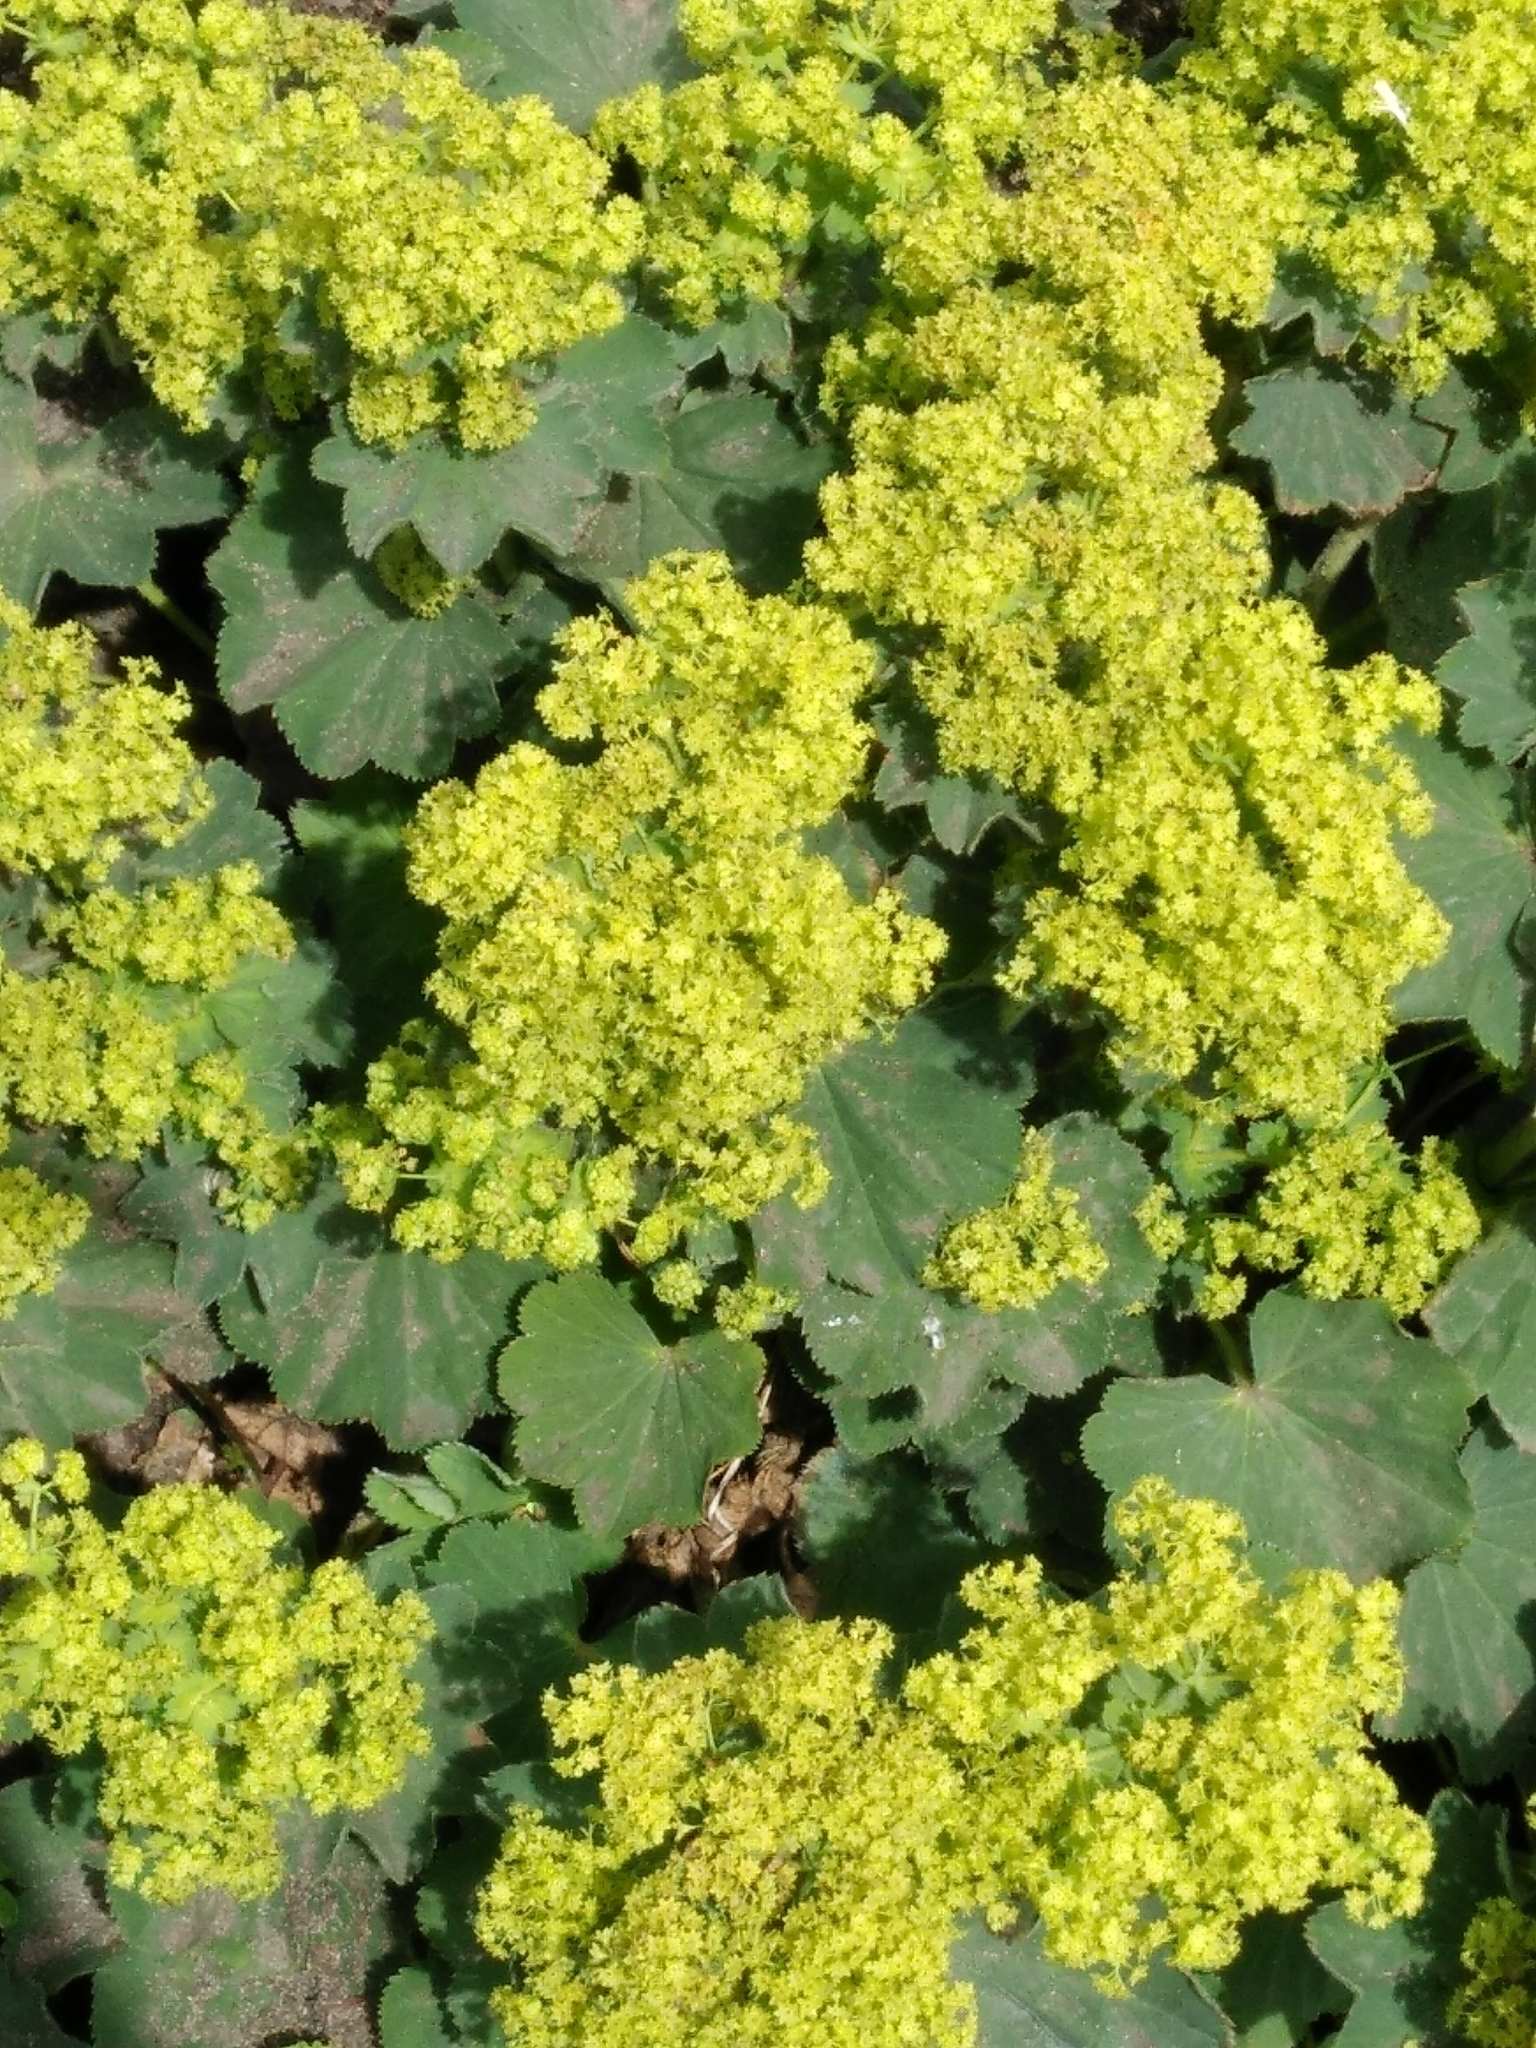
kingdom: Plantae
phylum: Tracheophyta
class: Magnoliopsida
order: Rosales
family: Rosaceae
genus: Alchemilla
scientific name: Alchemilla mollis
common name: Lady's-mantle
